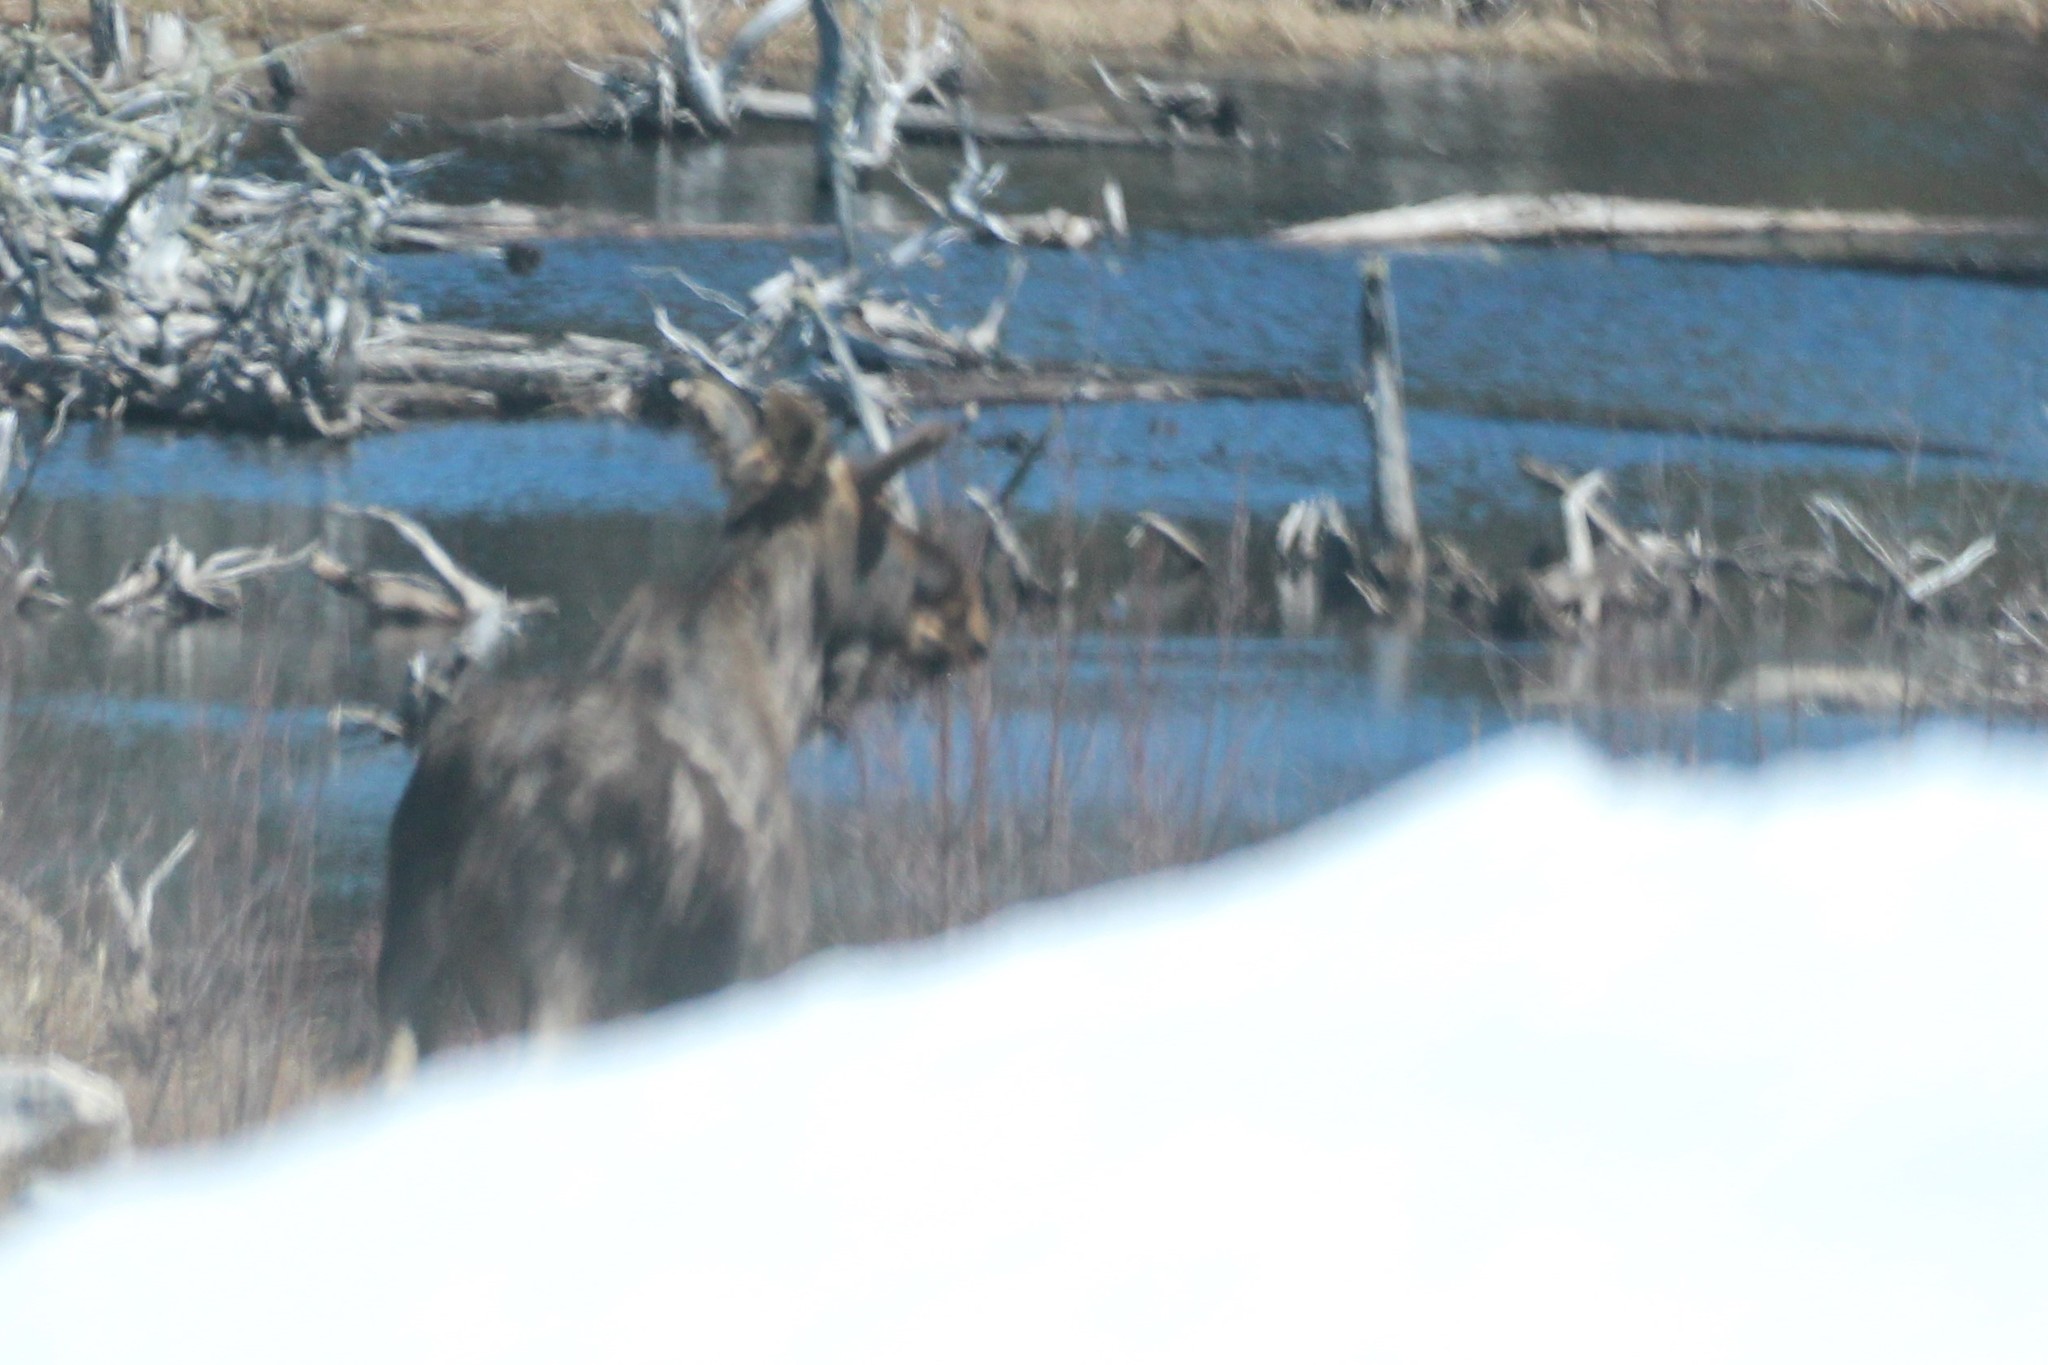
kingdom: Animalia
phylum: Chordata
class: Mammalia
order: Artiodactyla
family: Cervidae
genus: Alces
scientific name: Alces alces
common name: Moose
